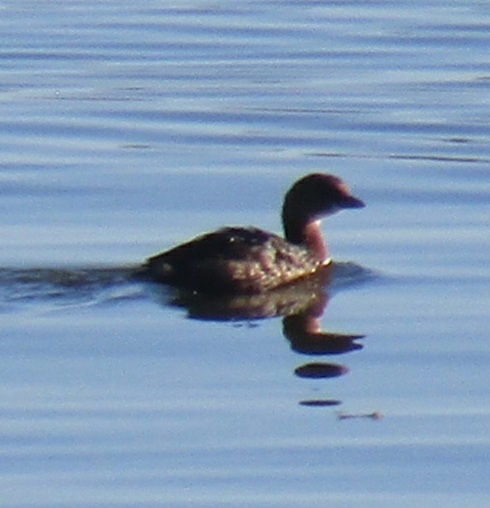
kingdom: Animalia
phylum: Chordata
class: Aves
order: Podicipediformes
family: Podicipedidae
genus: Podilymbus
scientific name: Podilymbus podiceps
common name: Pied-billed grebe
